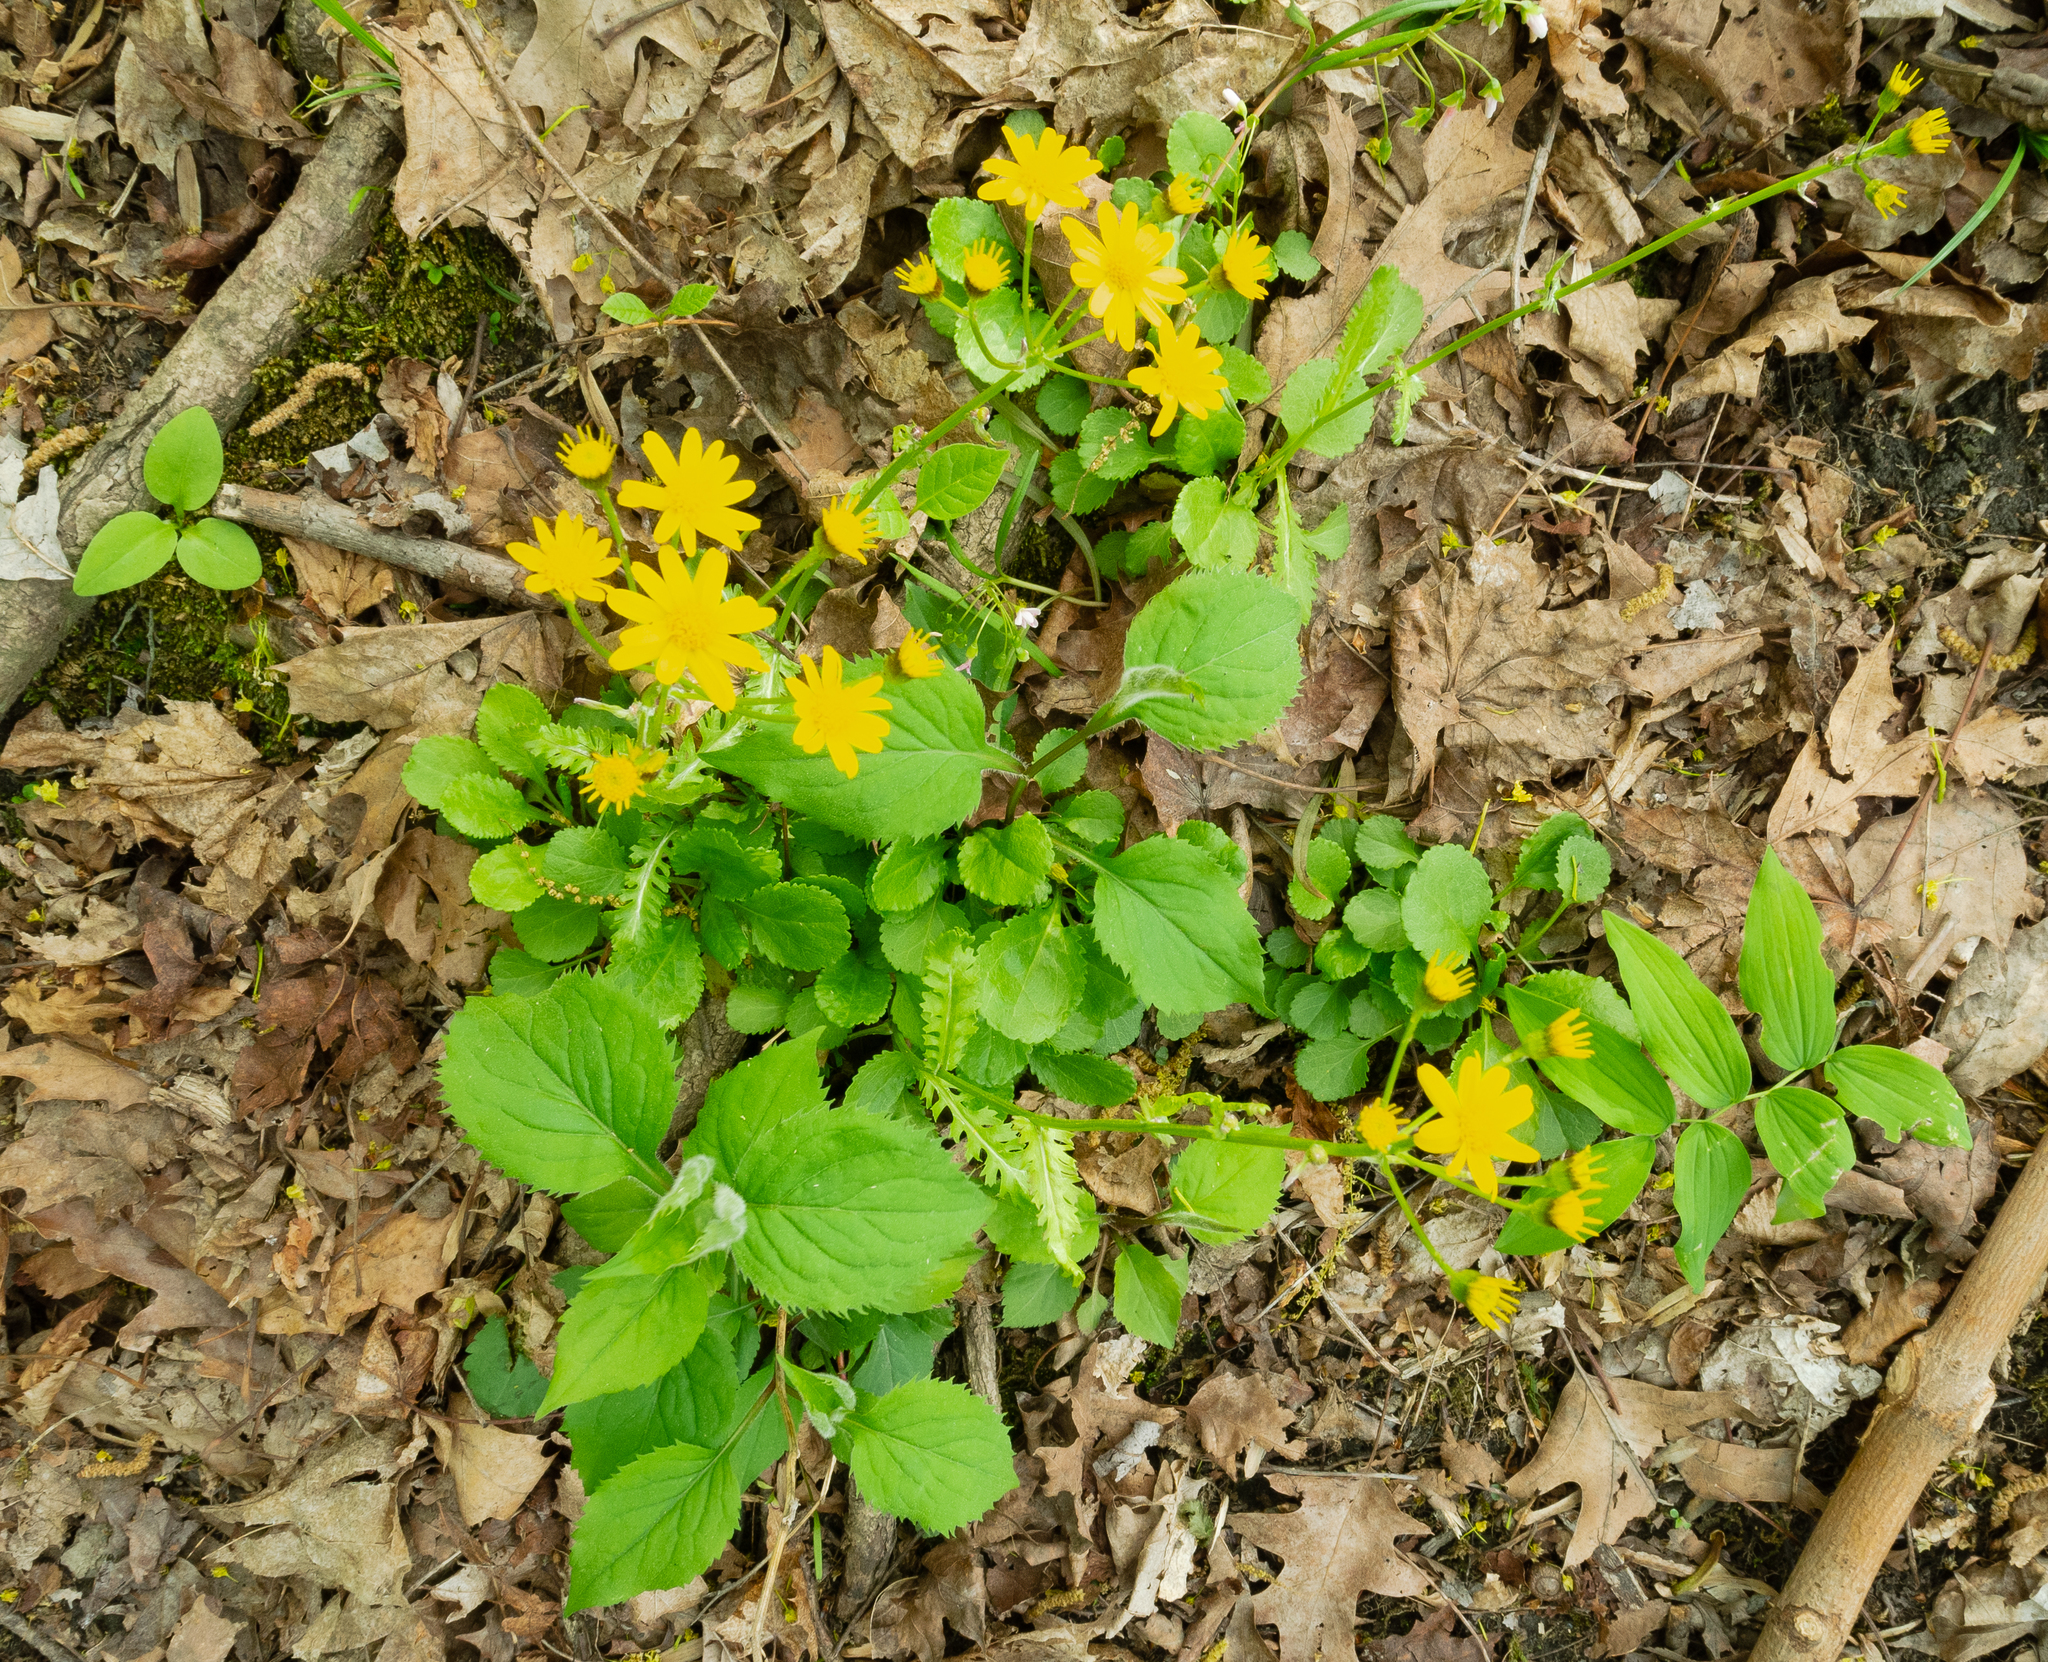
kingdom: Plantae
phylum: Tracheophyta
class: Magnoliopsida
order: Asterales
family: Asteraceae
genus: Packera
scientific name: Packera obovata
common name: Round-leaf ragwort
